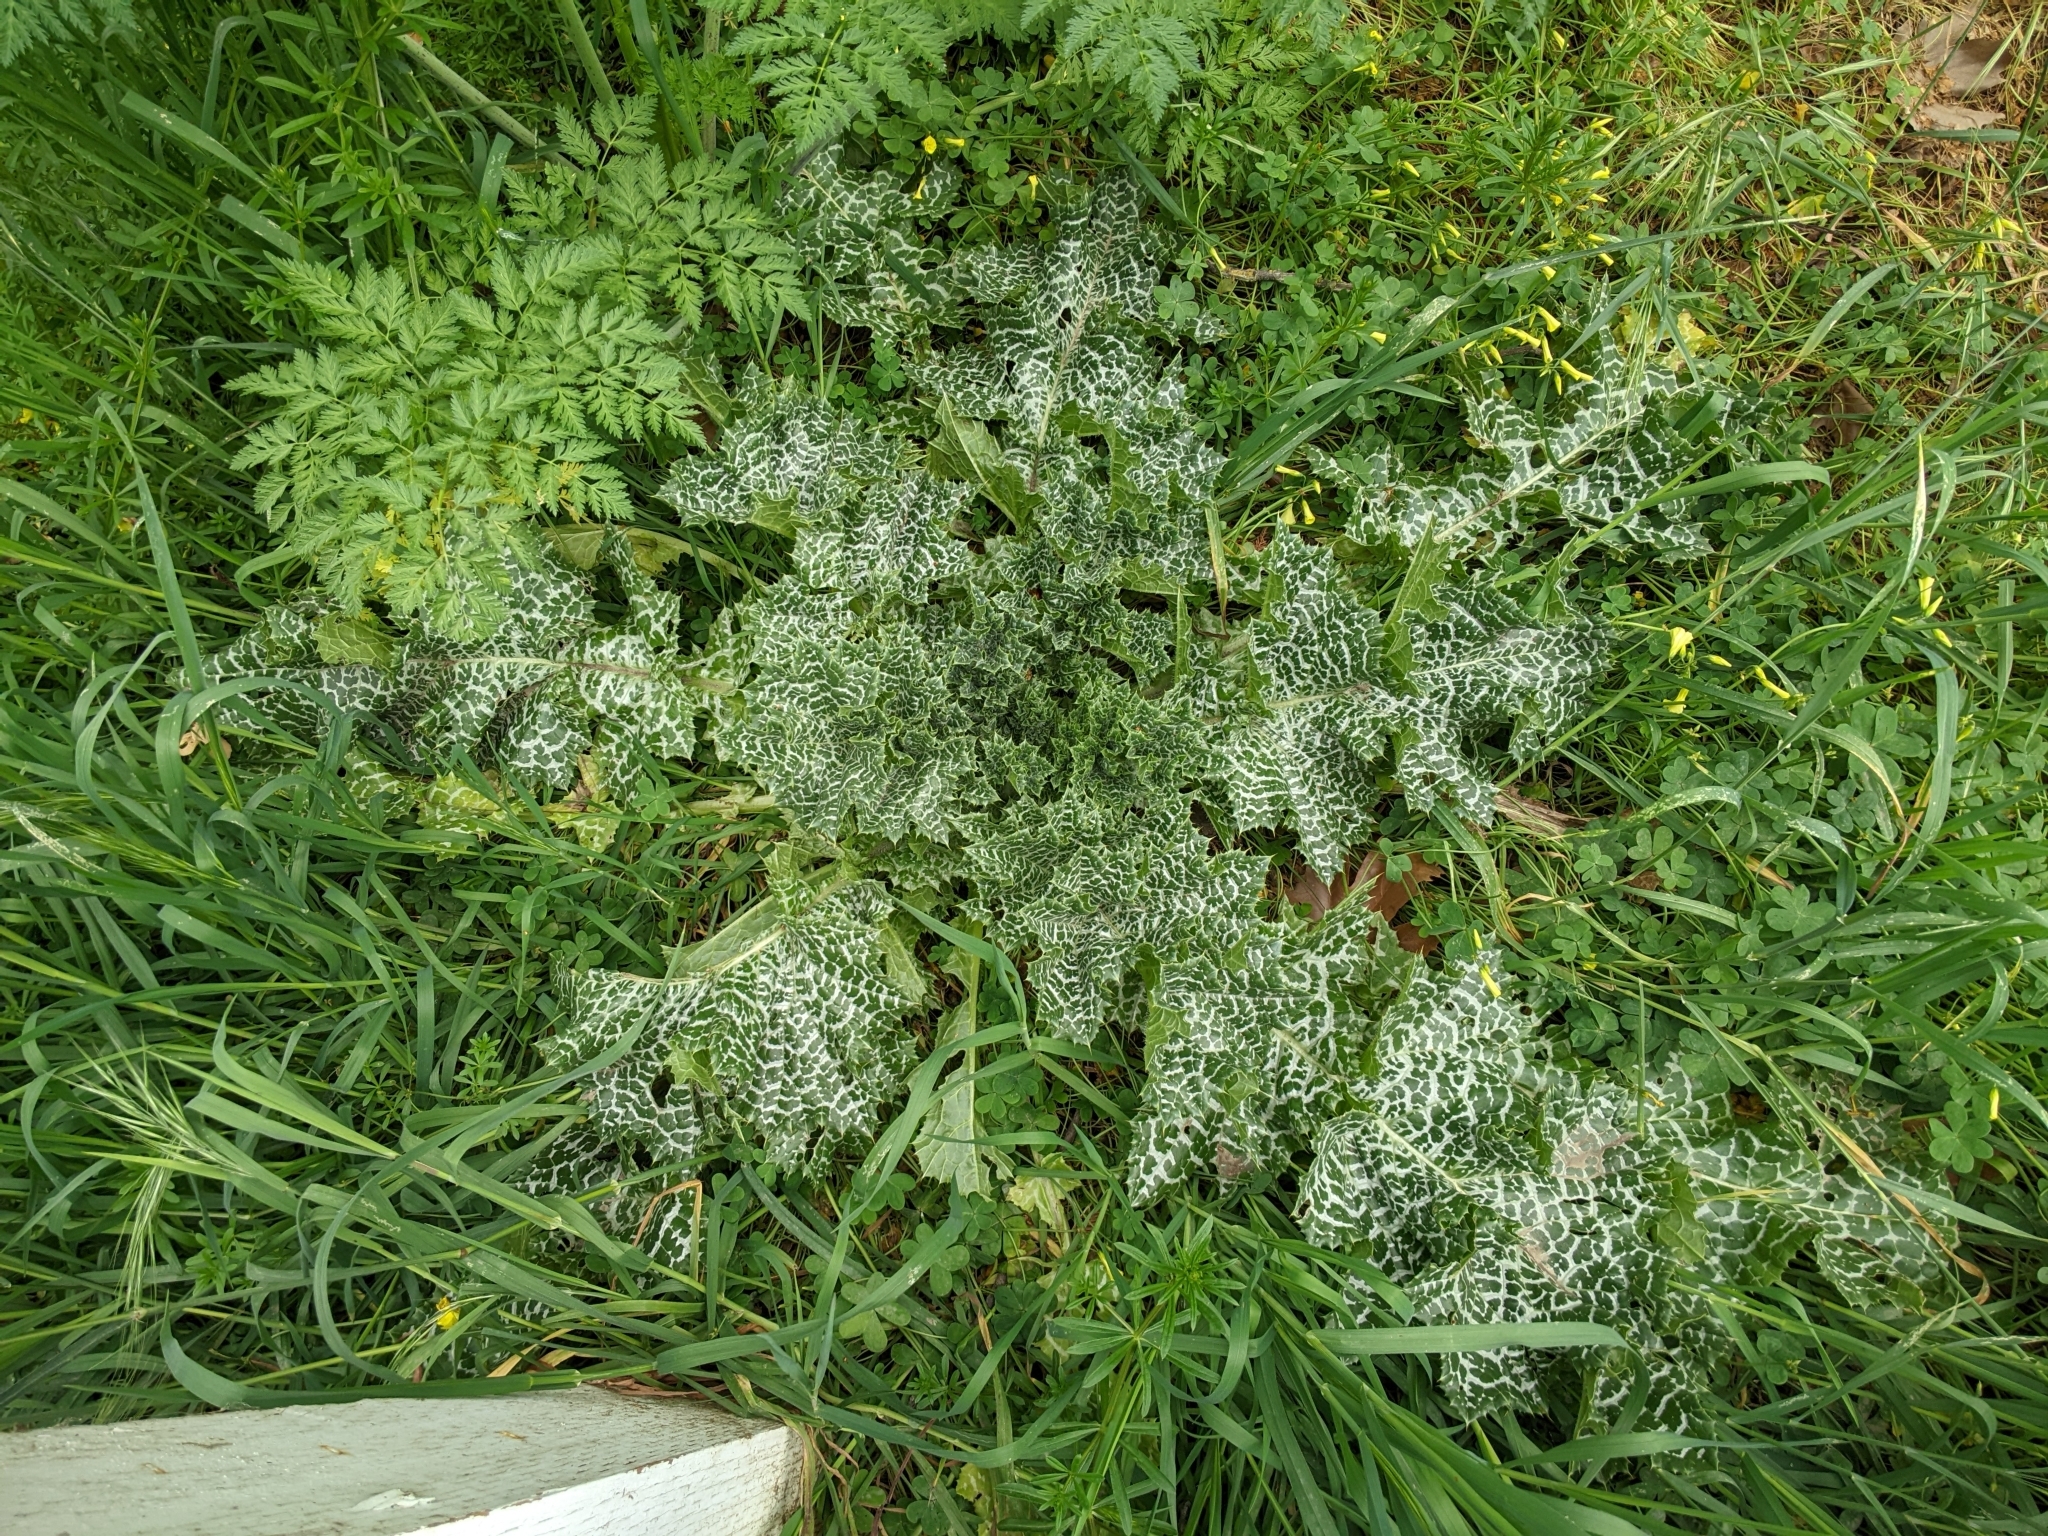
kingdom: Plantae
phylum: Tracheophyta
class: Magnoliopsida
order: Asterales
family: Asteraceae
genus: Silybum
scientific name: Silybum marianum
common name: Milk thistle
